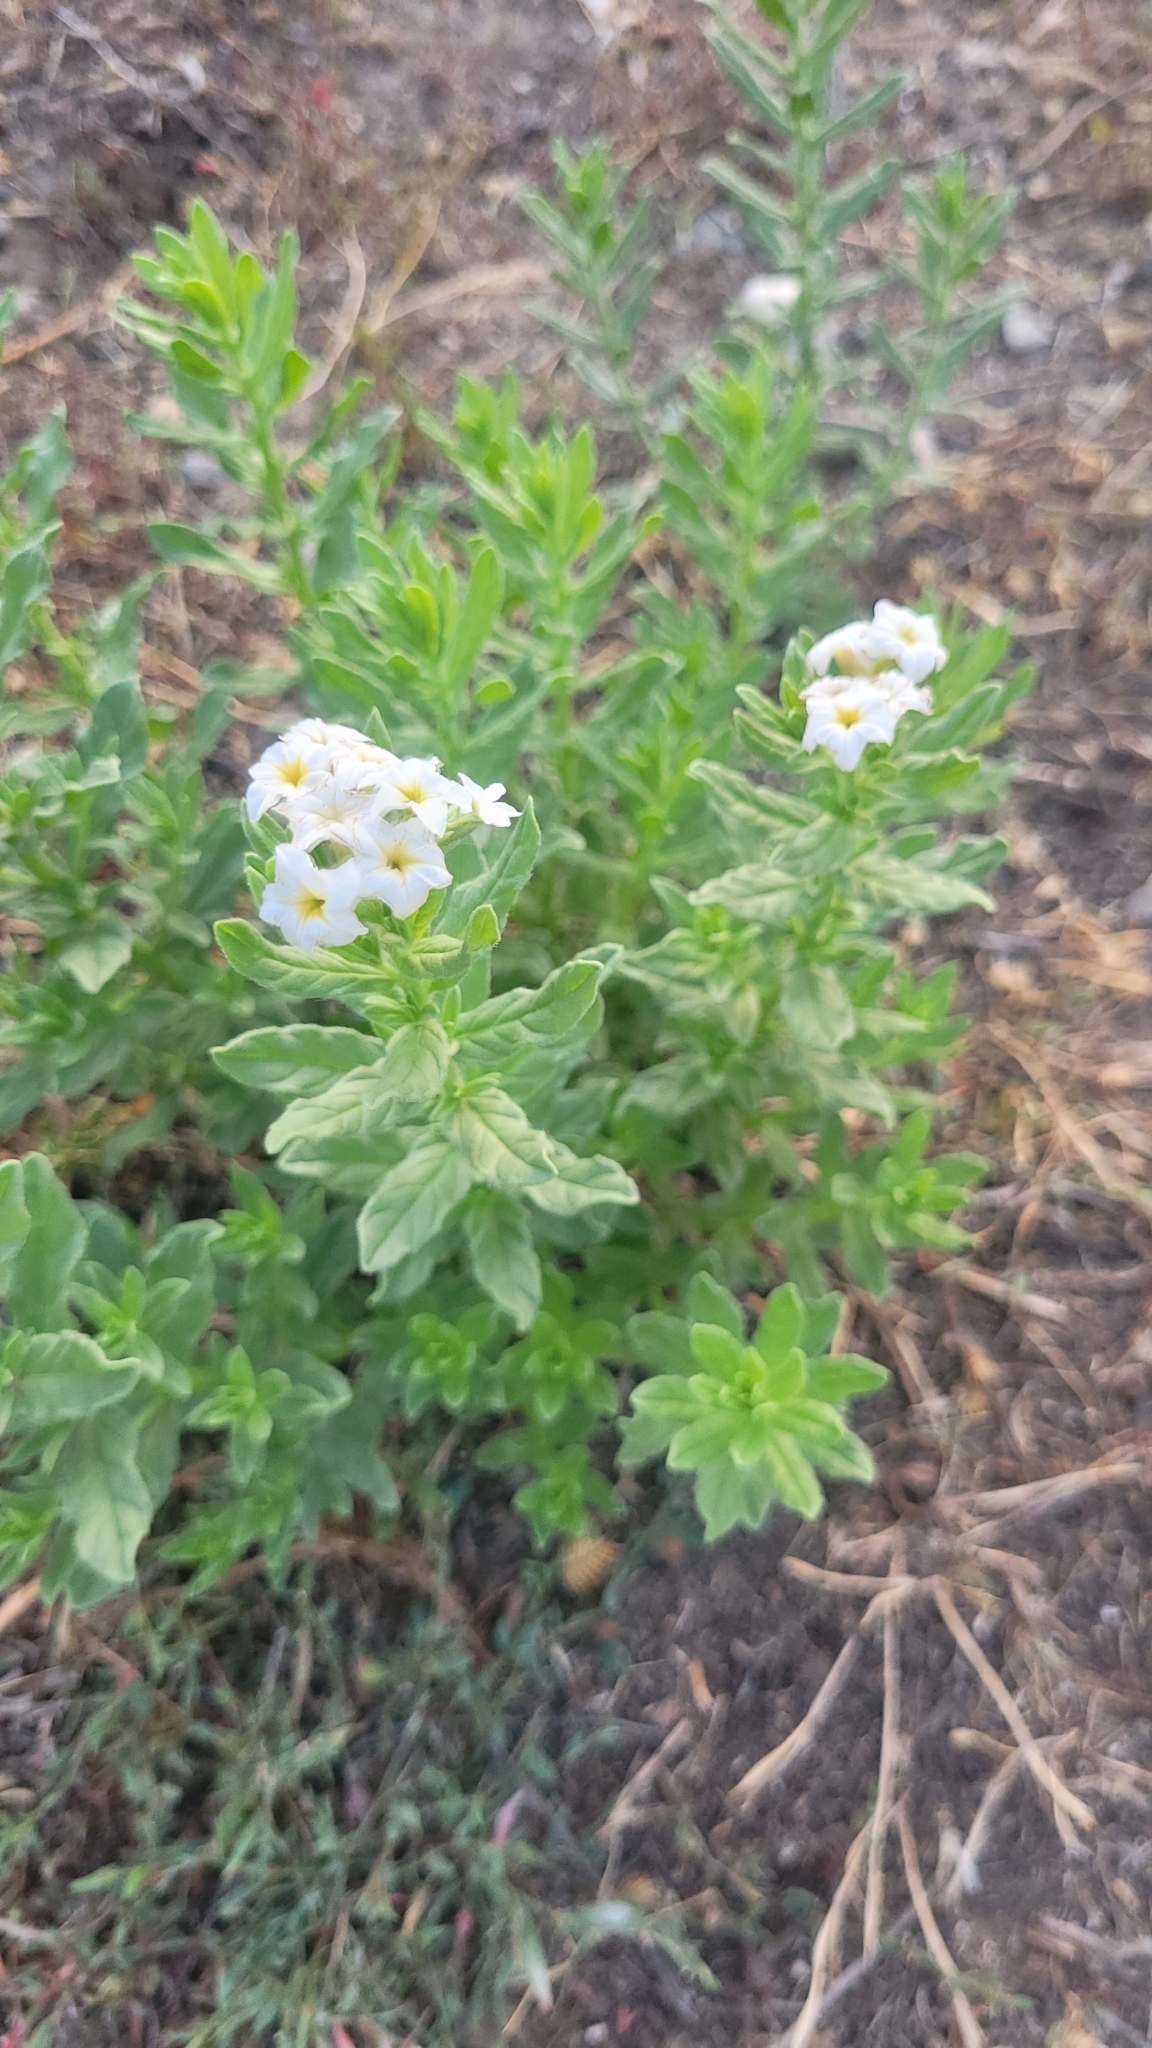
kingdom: Plantae
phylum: Tracheophyta
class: Magnoliopsida
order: Boraginales
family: Heliotropiaceae
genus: Tournefortia
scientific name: Tournefortia sibirica
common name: Siberian sea rosemary
